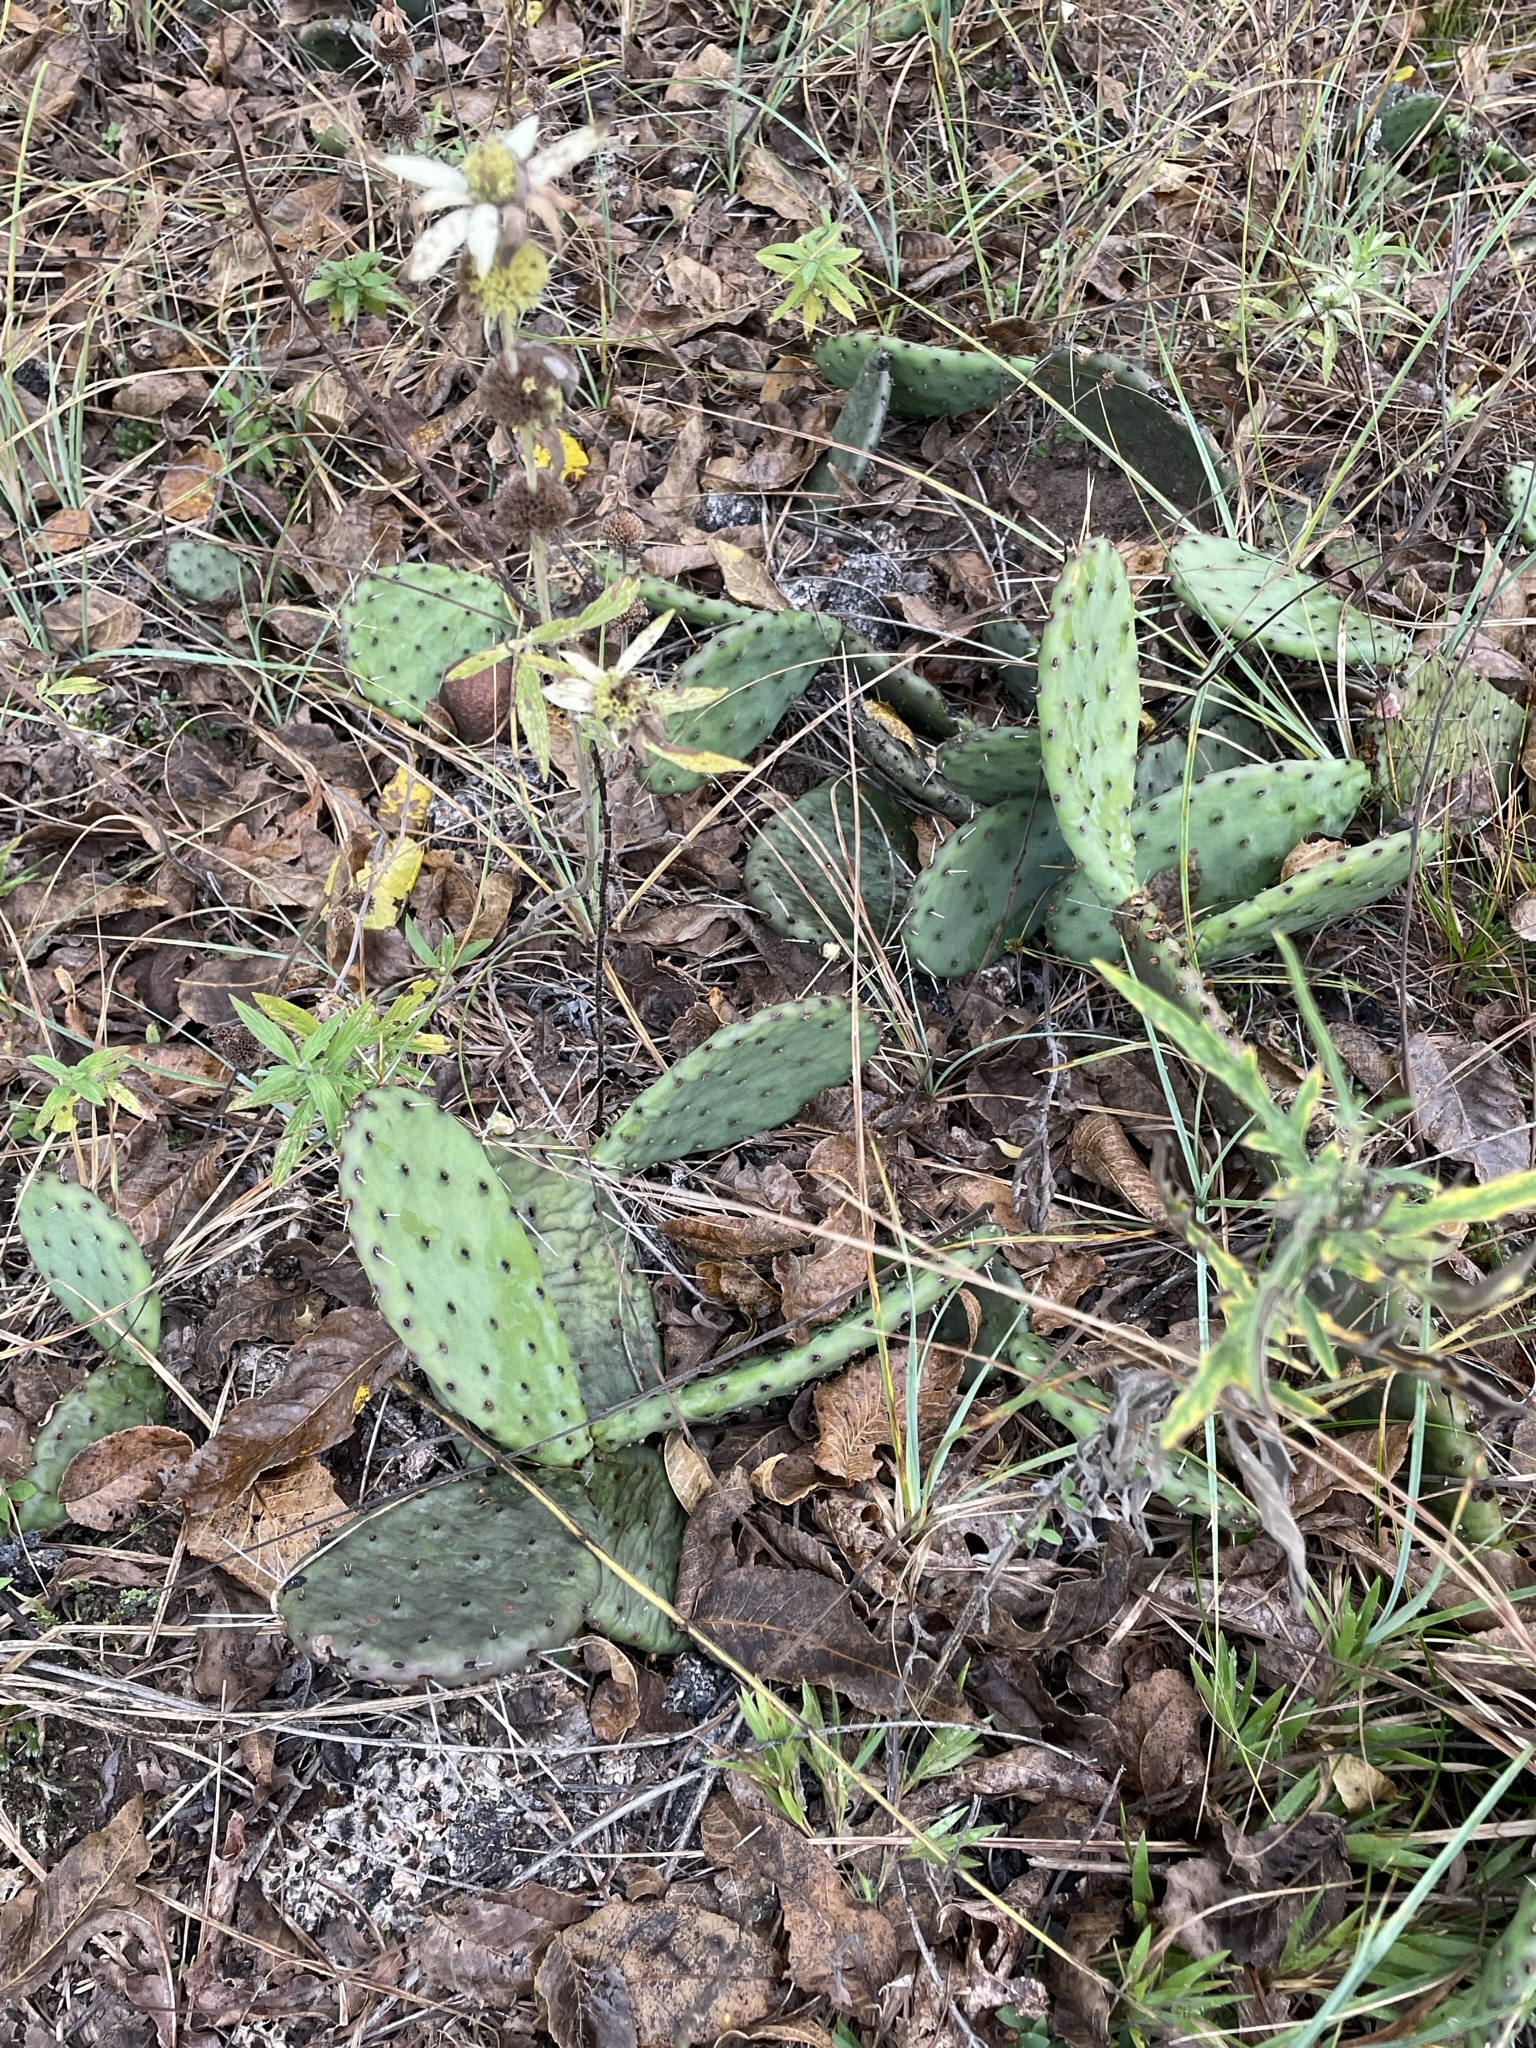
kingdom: Plantae
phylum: Tracheophyta
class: Magnoliopsida
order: Caryophyllales
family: Cactaceae
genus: Opuntia
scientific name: Opuntia humifusa
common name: Eastern prickly-pear
